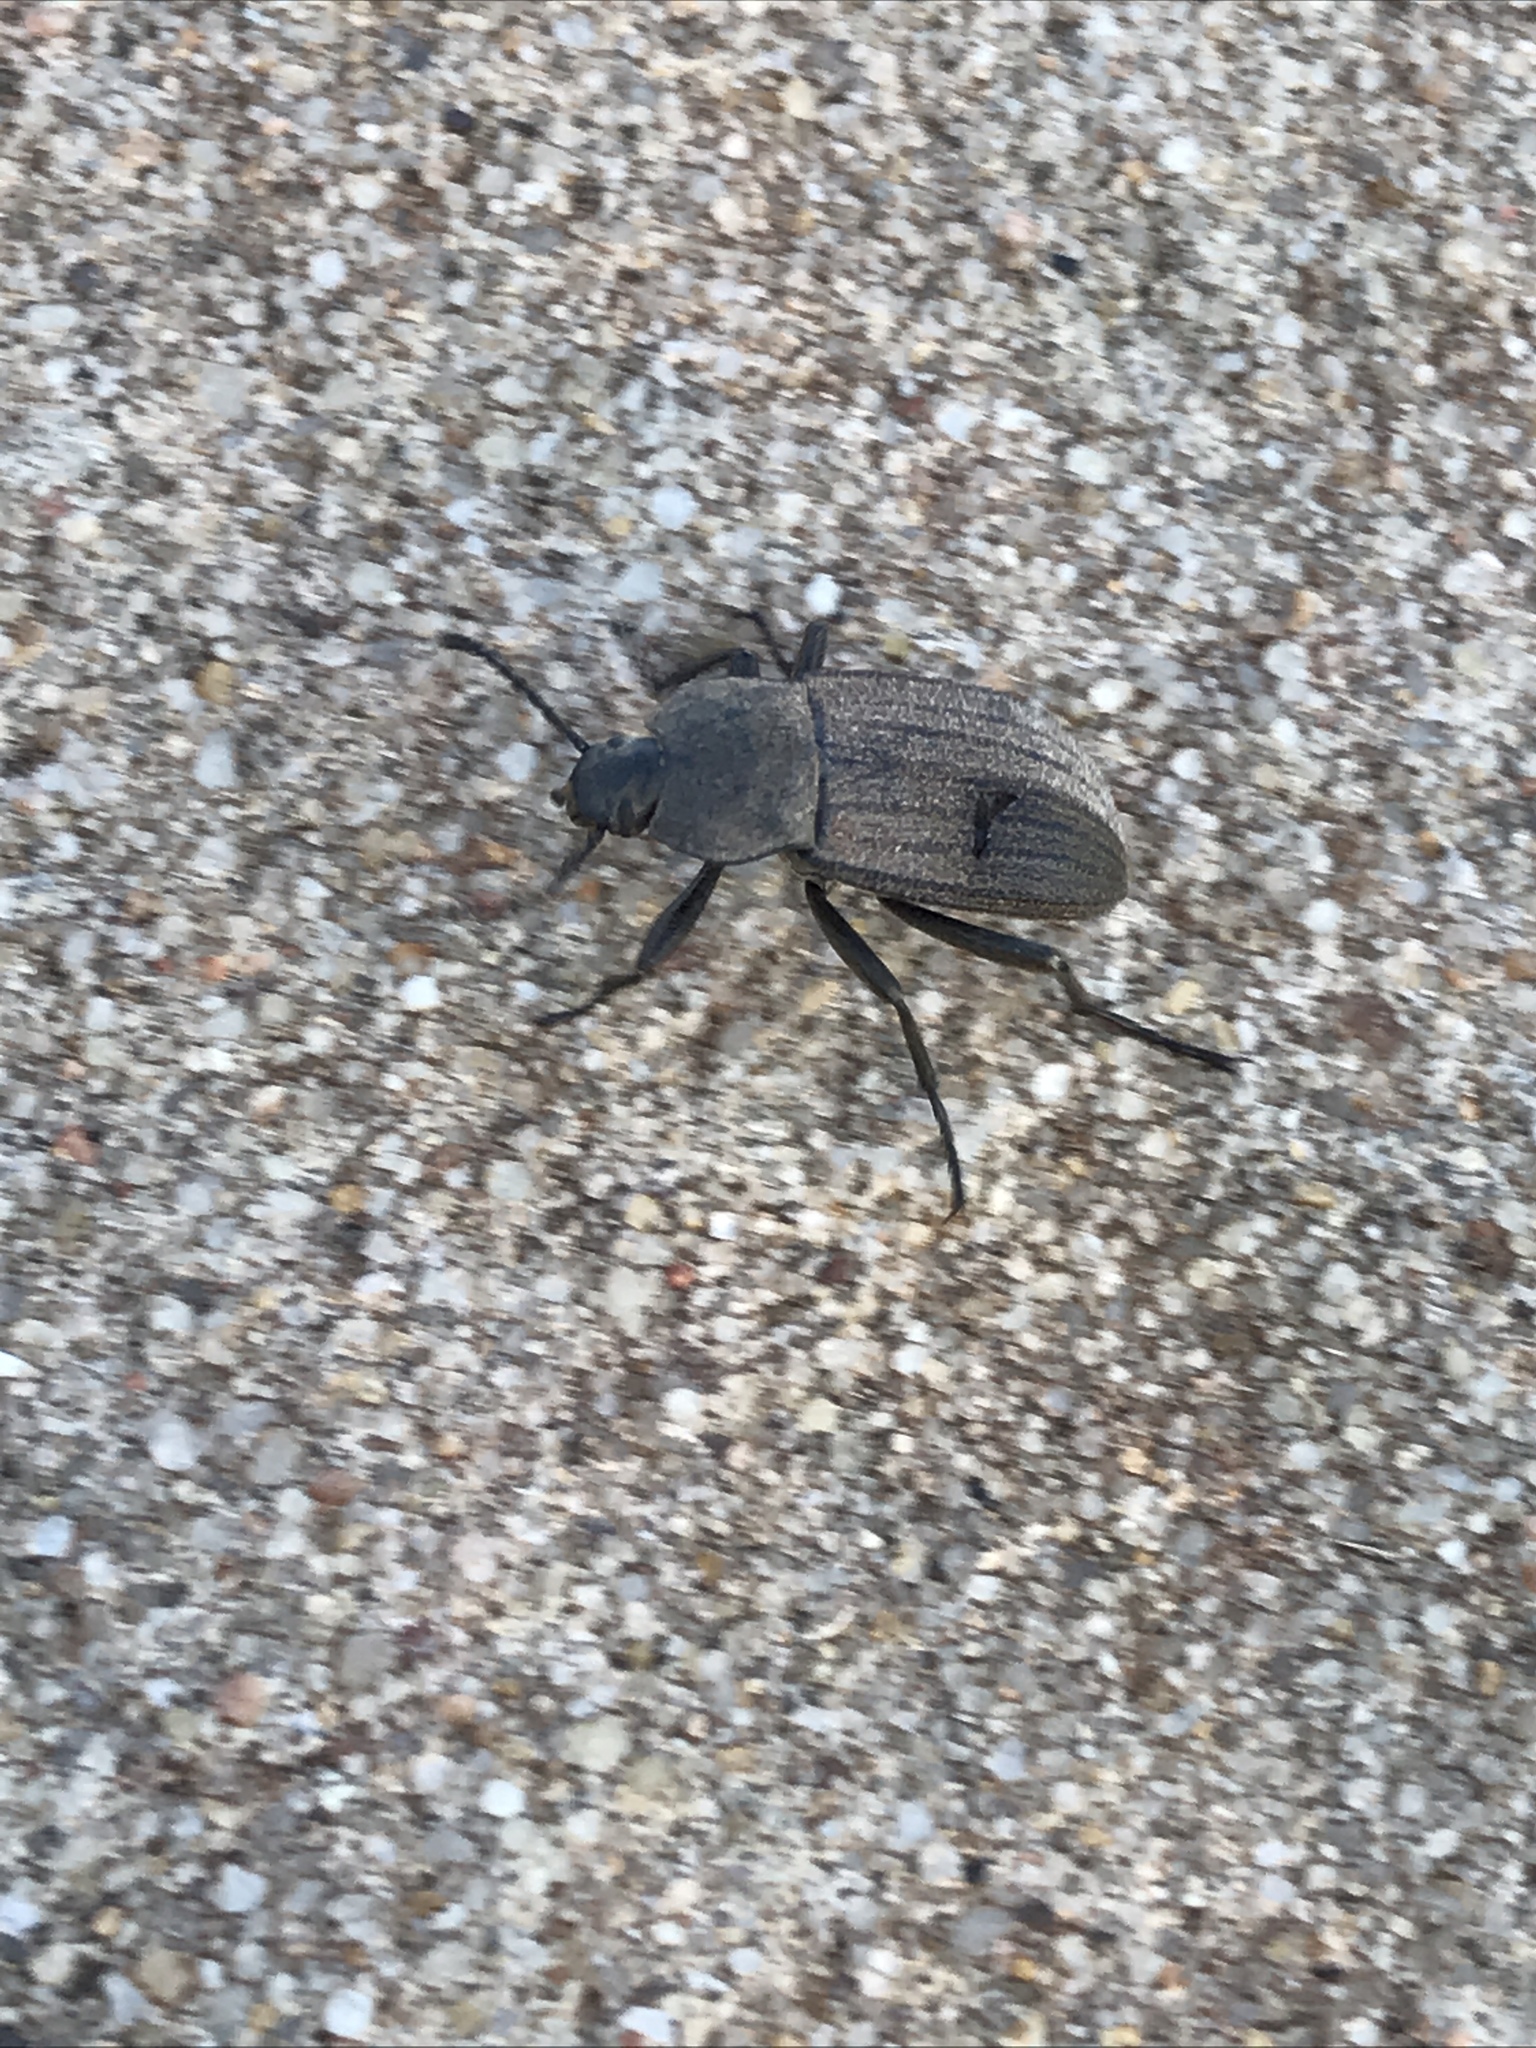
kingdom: Animalia
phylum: Arthropoda
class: Insecta
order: Coleoptera
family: Tenebrionidae
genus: Eleodes
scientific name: Eleodes tricostata
